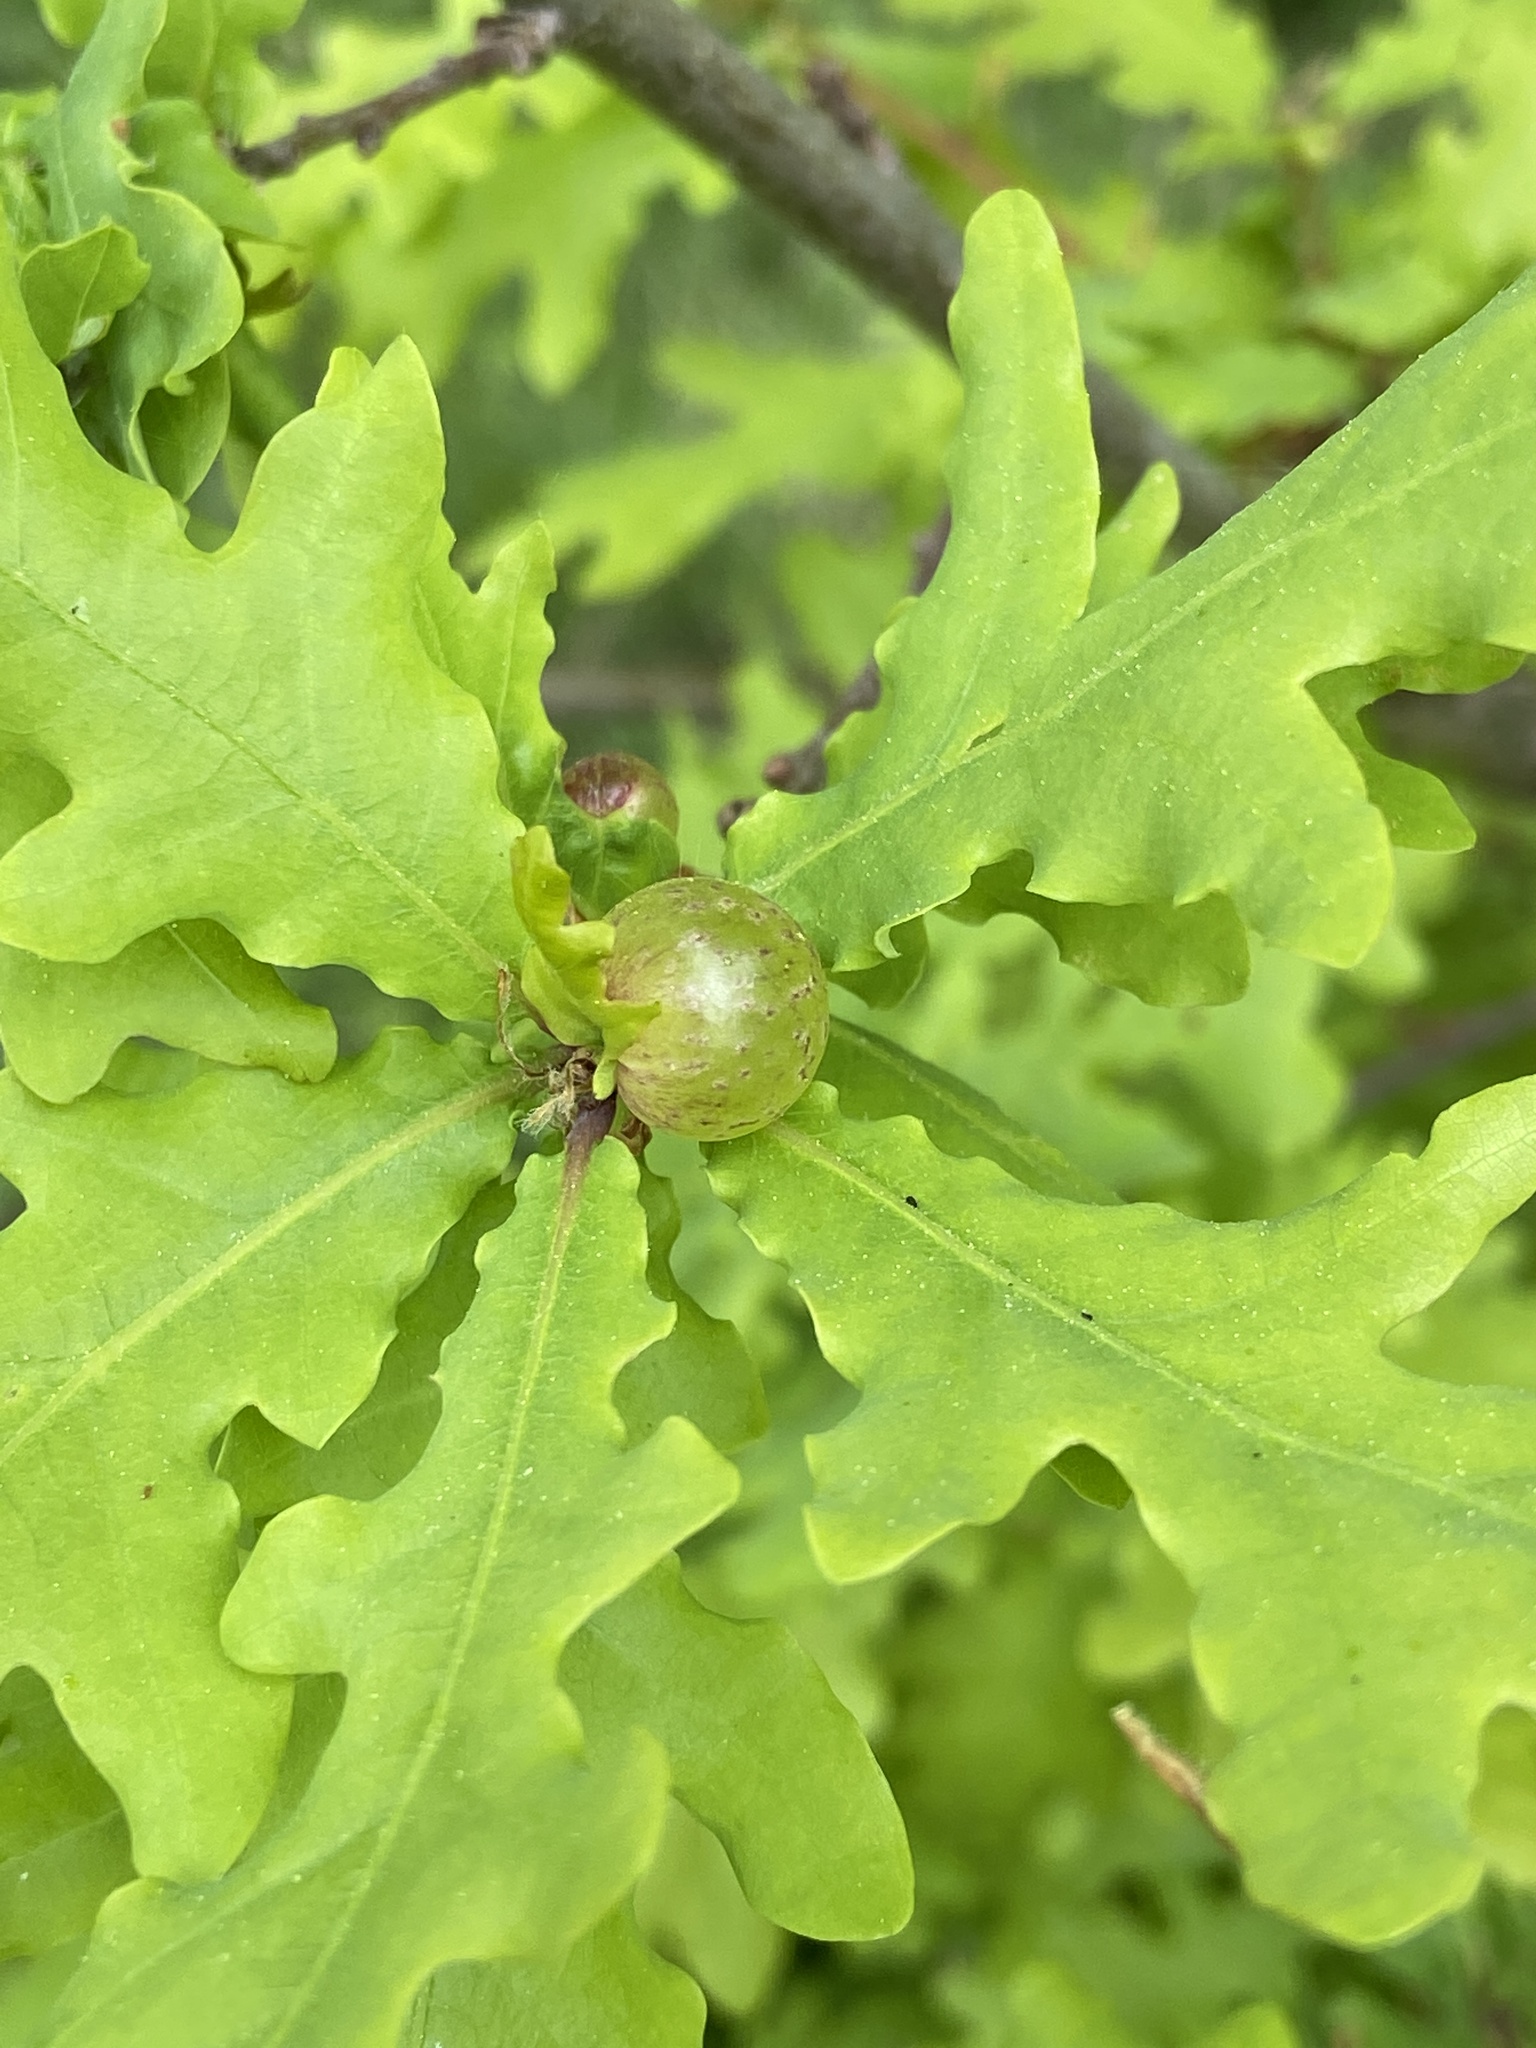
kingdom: Animalia
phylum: Arthropoda
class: Insecta
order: Hymenoptera
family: Cynipidae
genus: Neuroterus
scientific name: Neuroterus quercusbaccarum
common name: Common spangle gall
